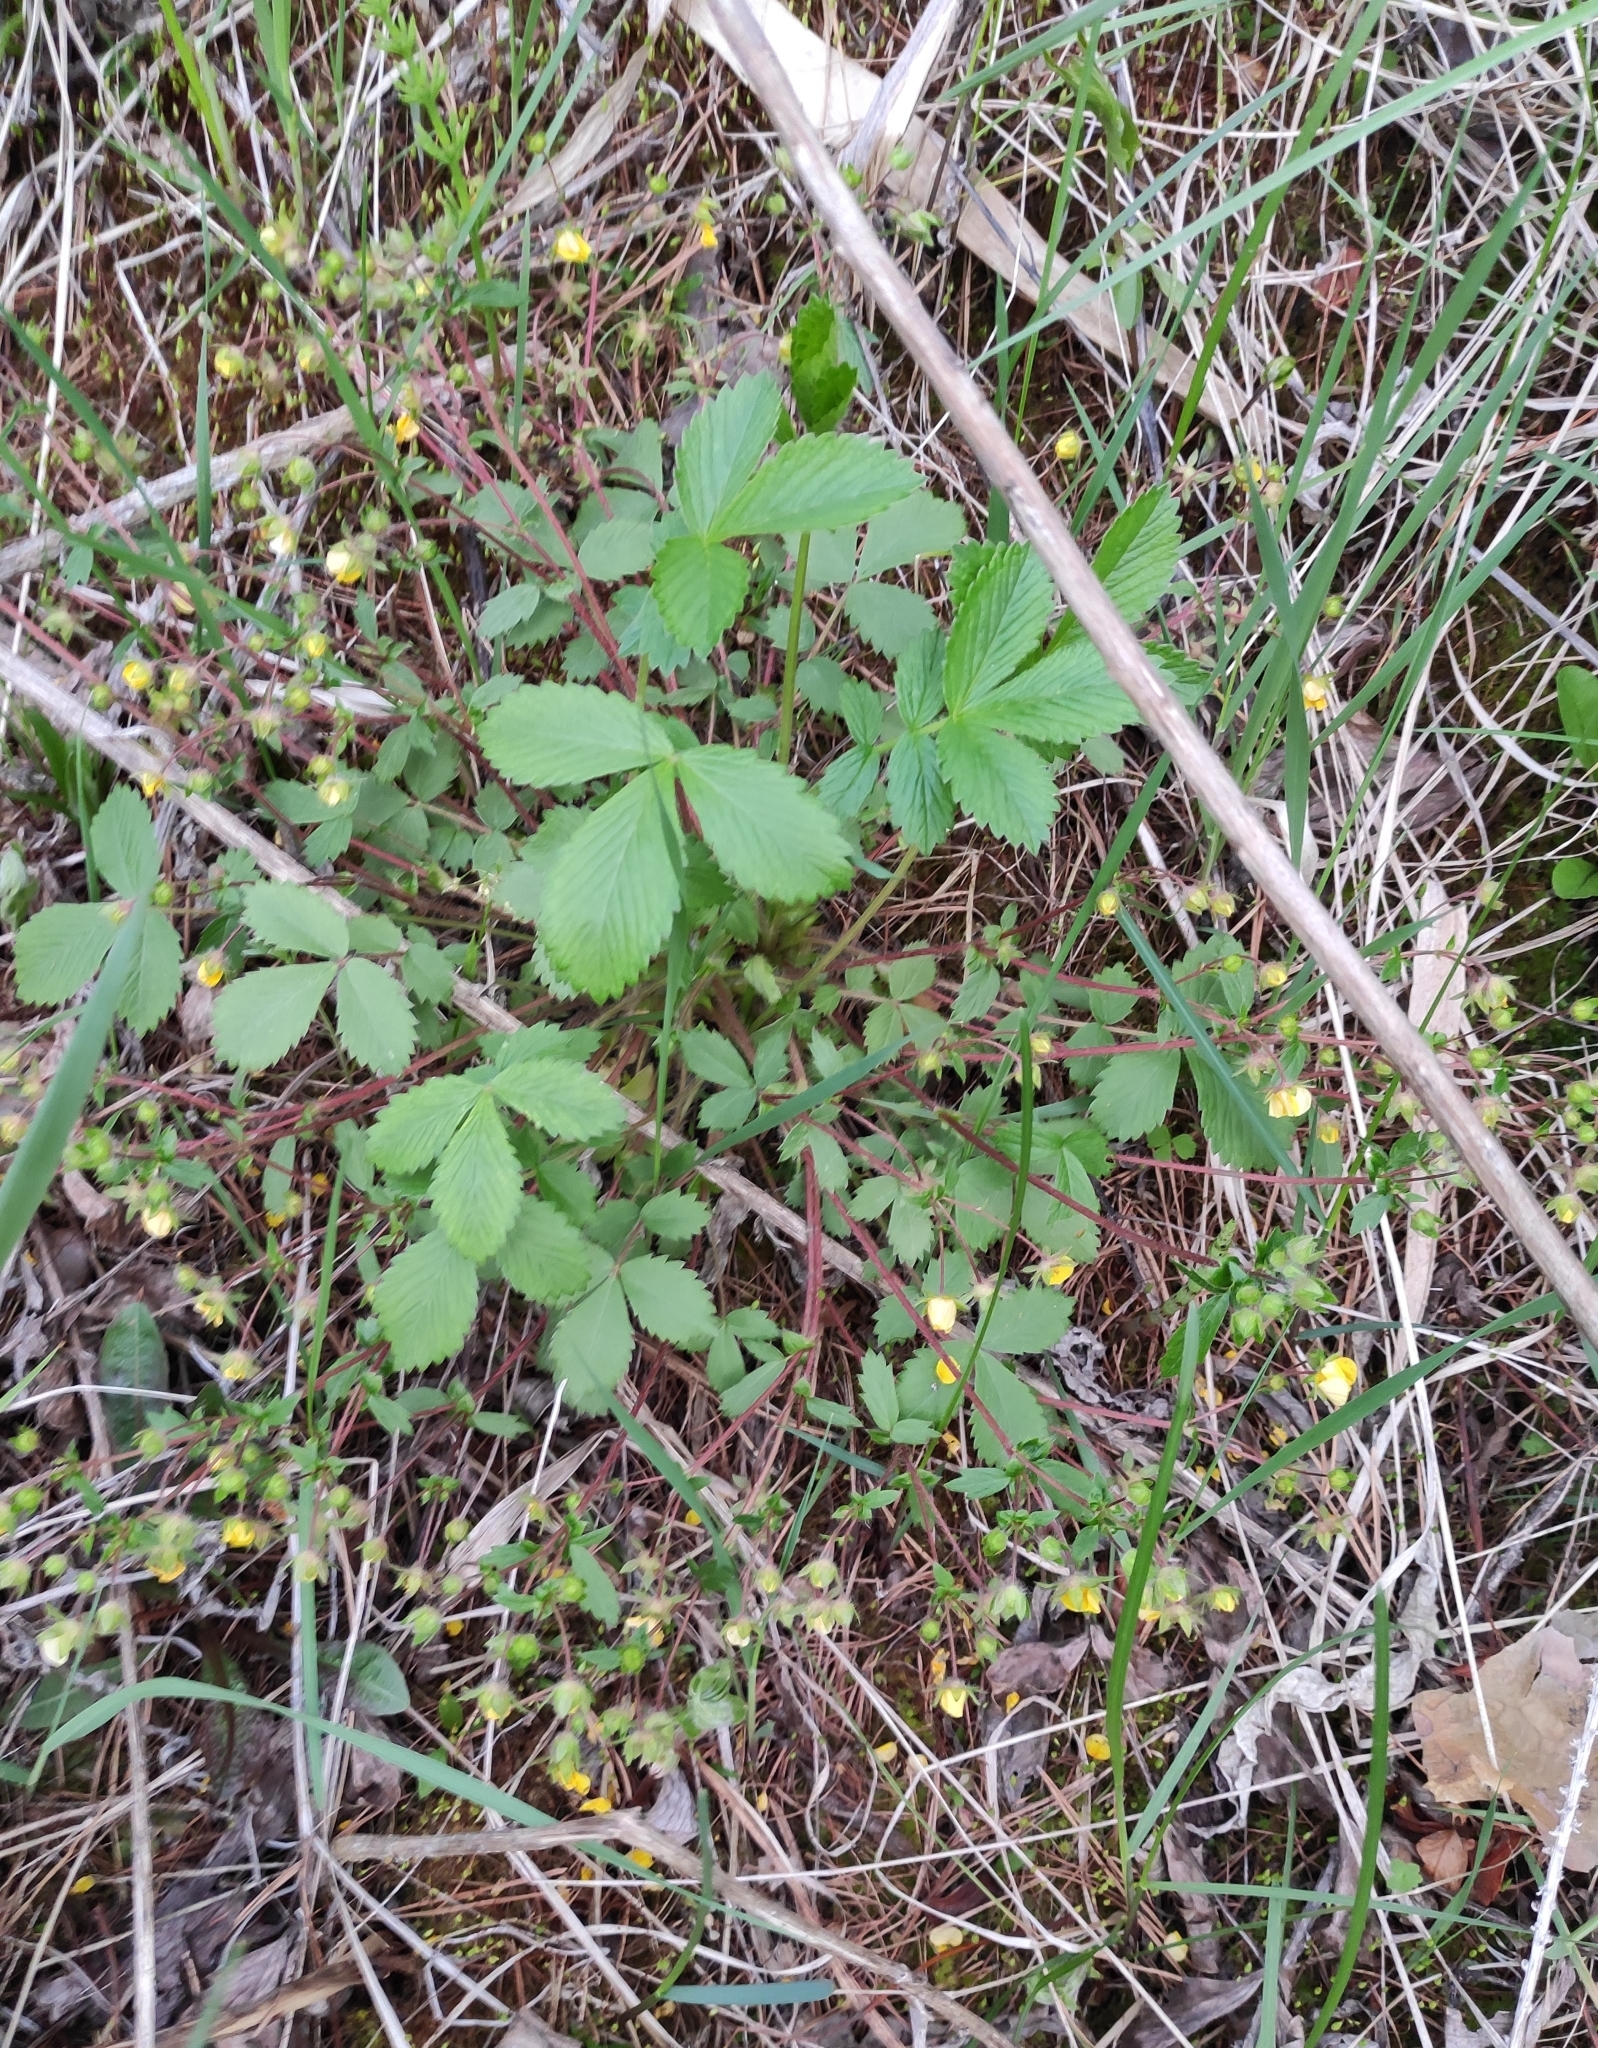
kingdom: Plantae
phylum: Tracheophyta
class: Magnoliopsida
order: Rosales
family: Rosaceae
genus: Potentilla
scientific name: Potentilla fragarioides
